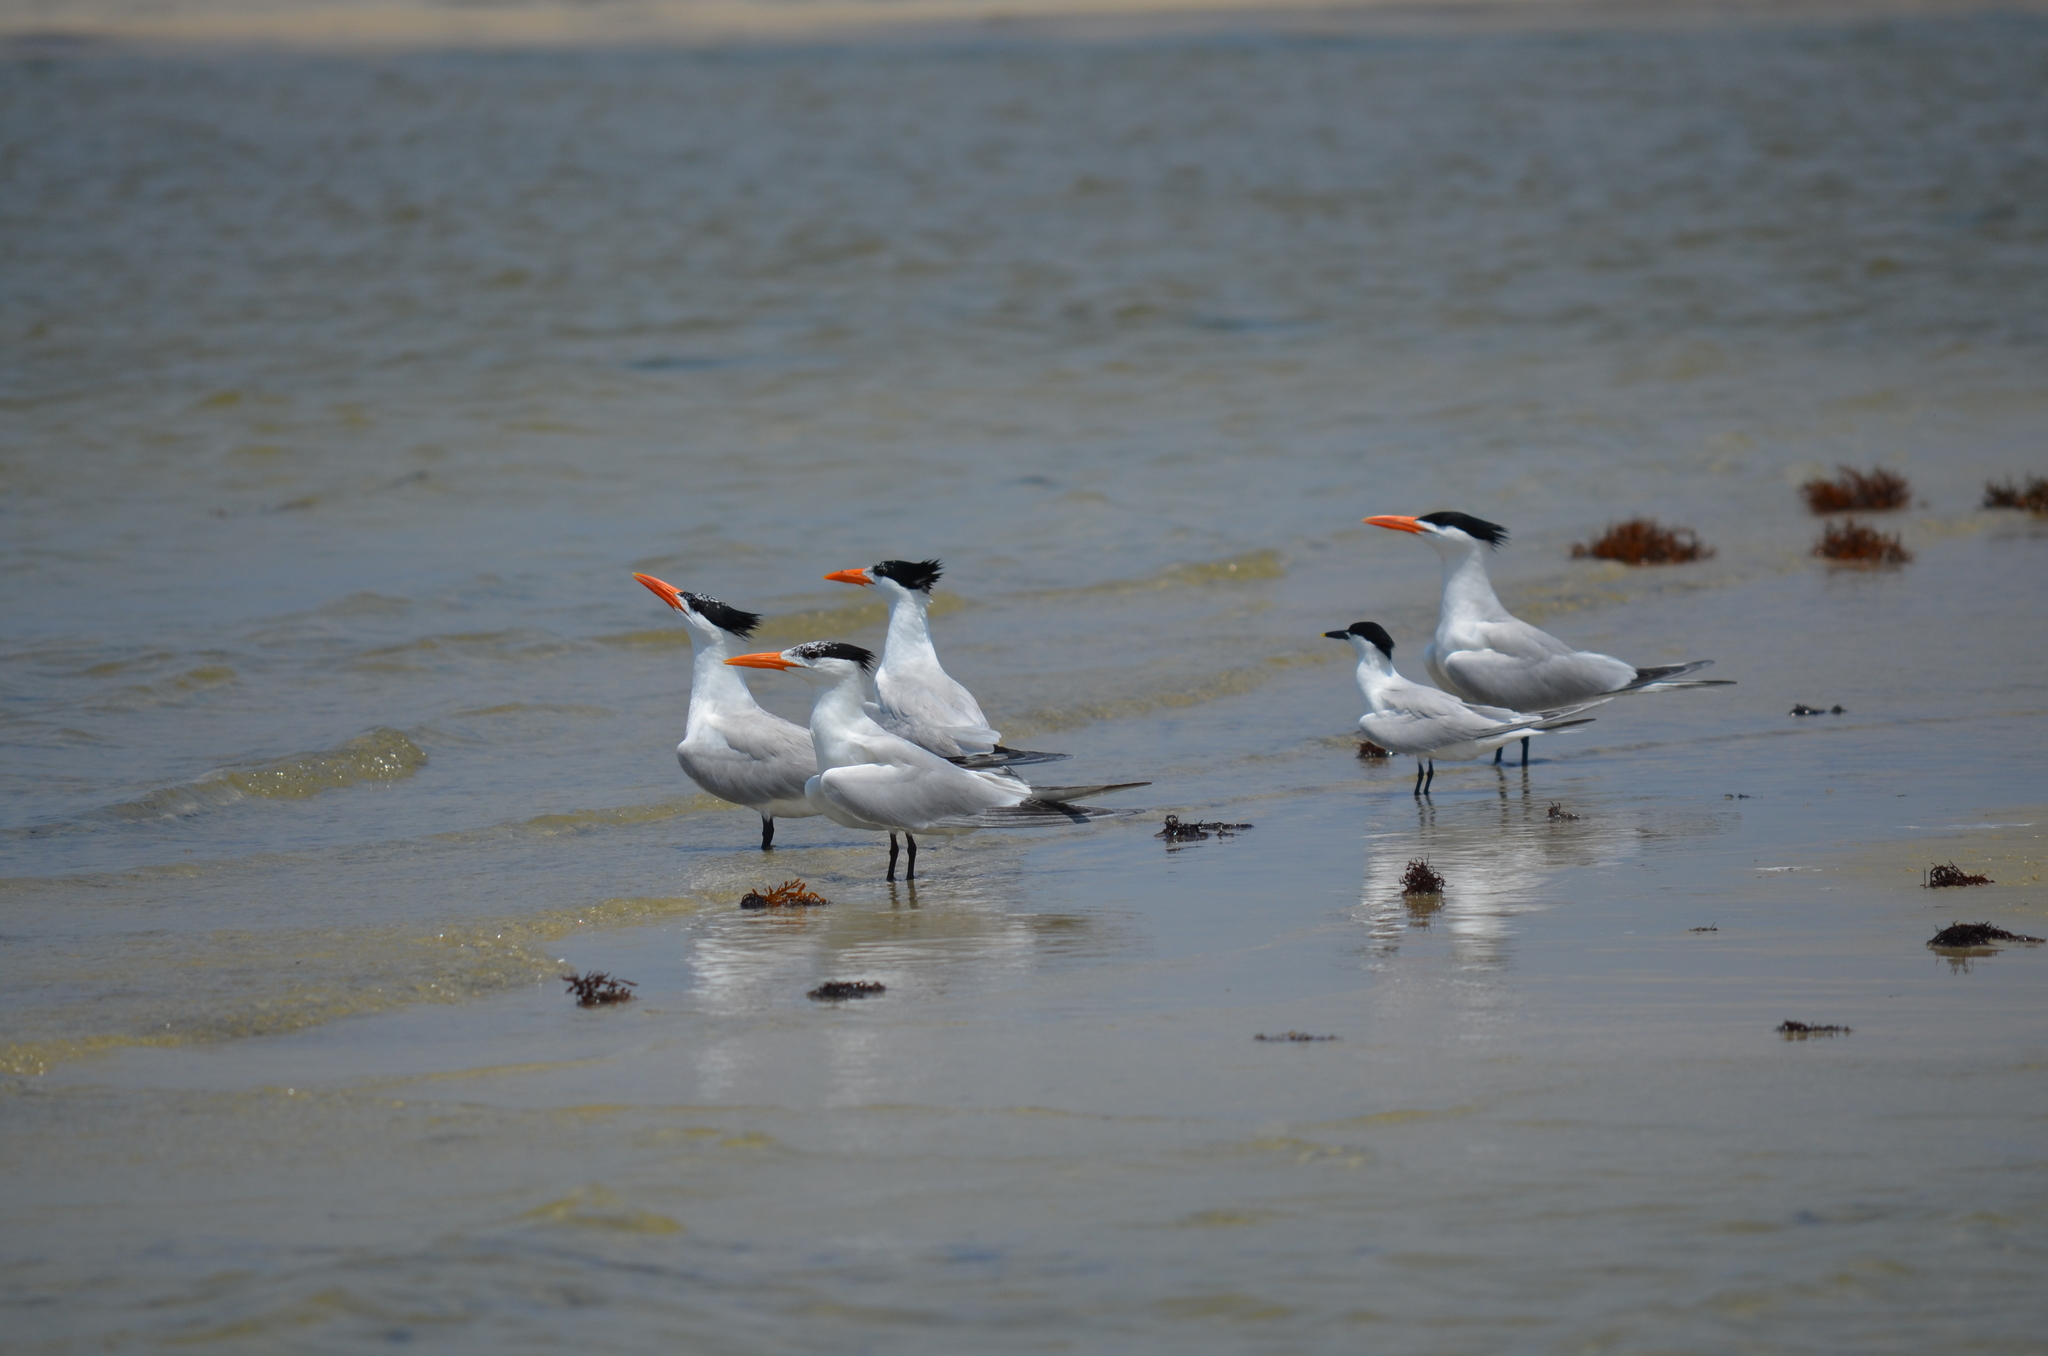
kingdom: Animalia
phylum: Chordata
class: Aves
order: Charadriiformes
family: Laridae
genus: Thalasseus
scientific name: Thalasseus maximus
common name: Royal tern
